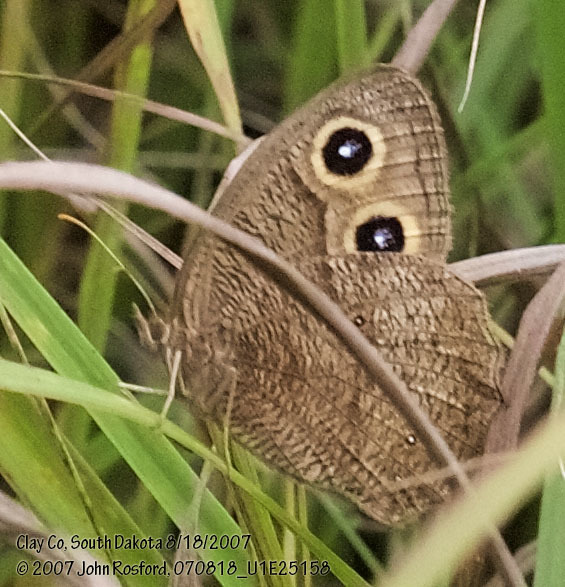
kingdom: Animalia
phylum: Arthropoda
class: Insecta
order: Lepidoptera
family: Nymphalidae
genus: Cercyonis
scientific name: Cercyonis pegala
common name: Common wood-nymph
